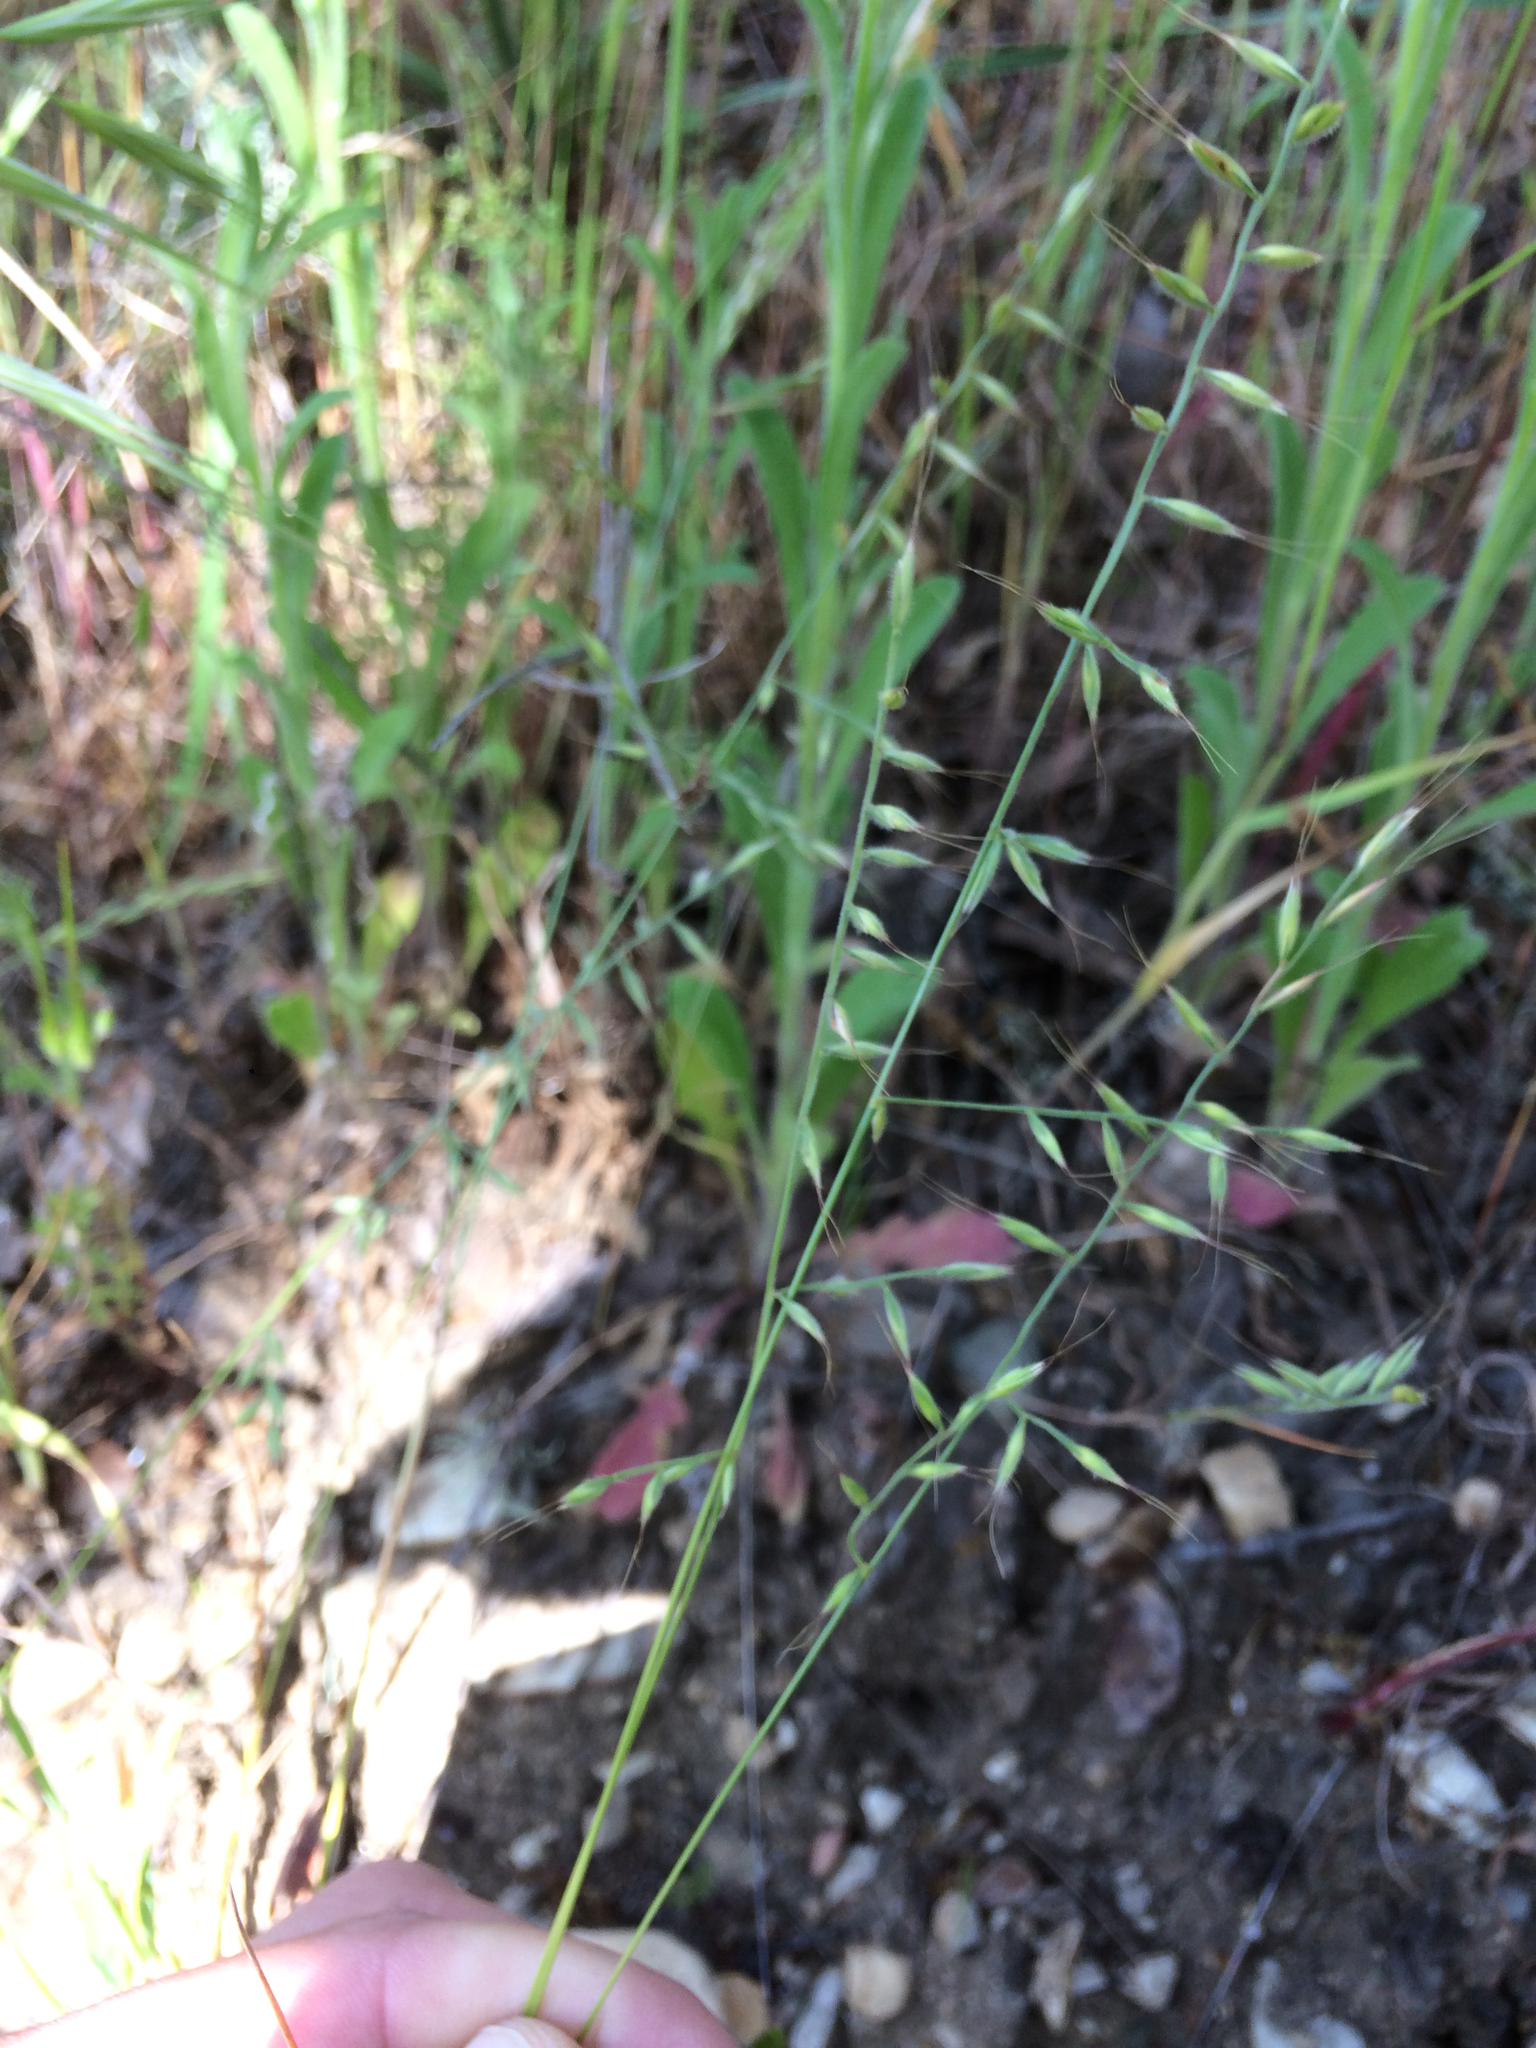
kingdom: Plantae
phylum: Tracheophyta
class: Liliopsida
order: Poales
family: Poaceae
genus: Festuca
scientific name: Festuca microstachys
